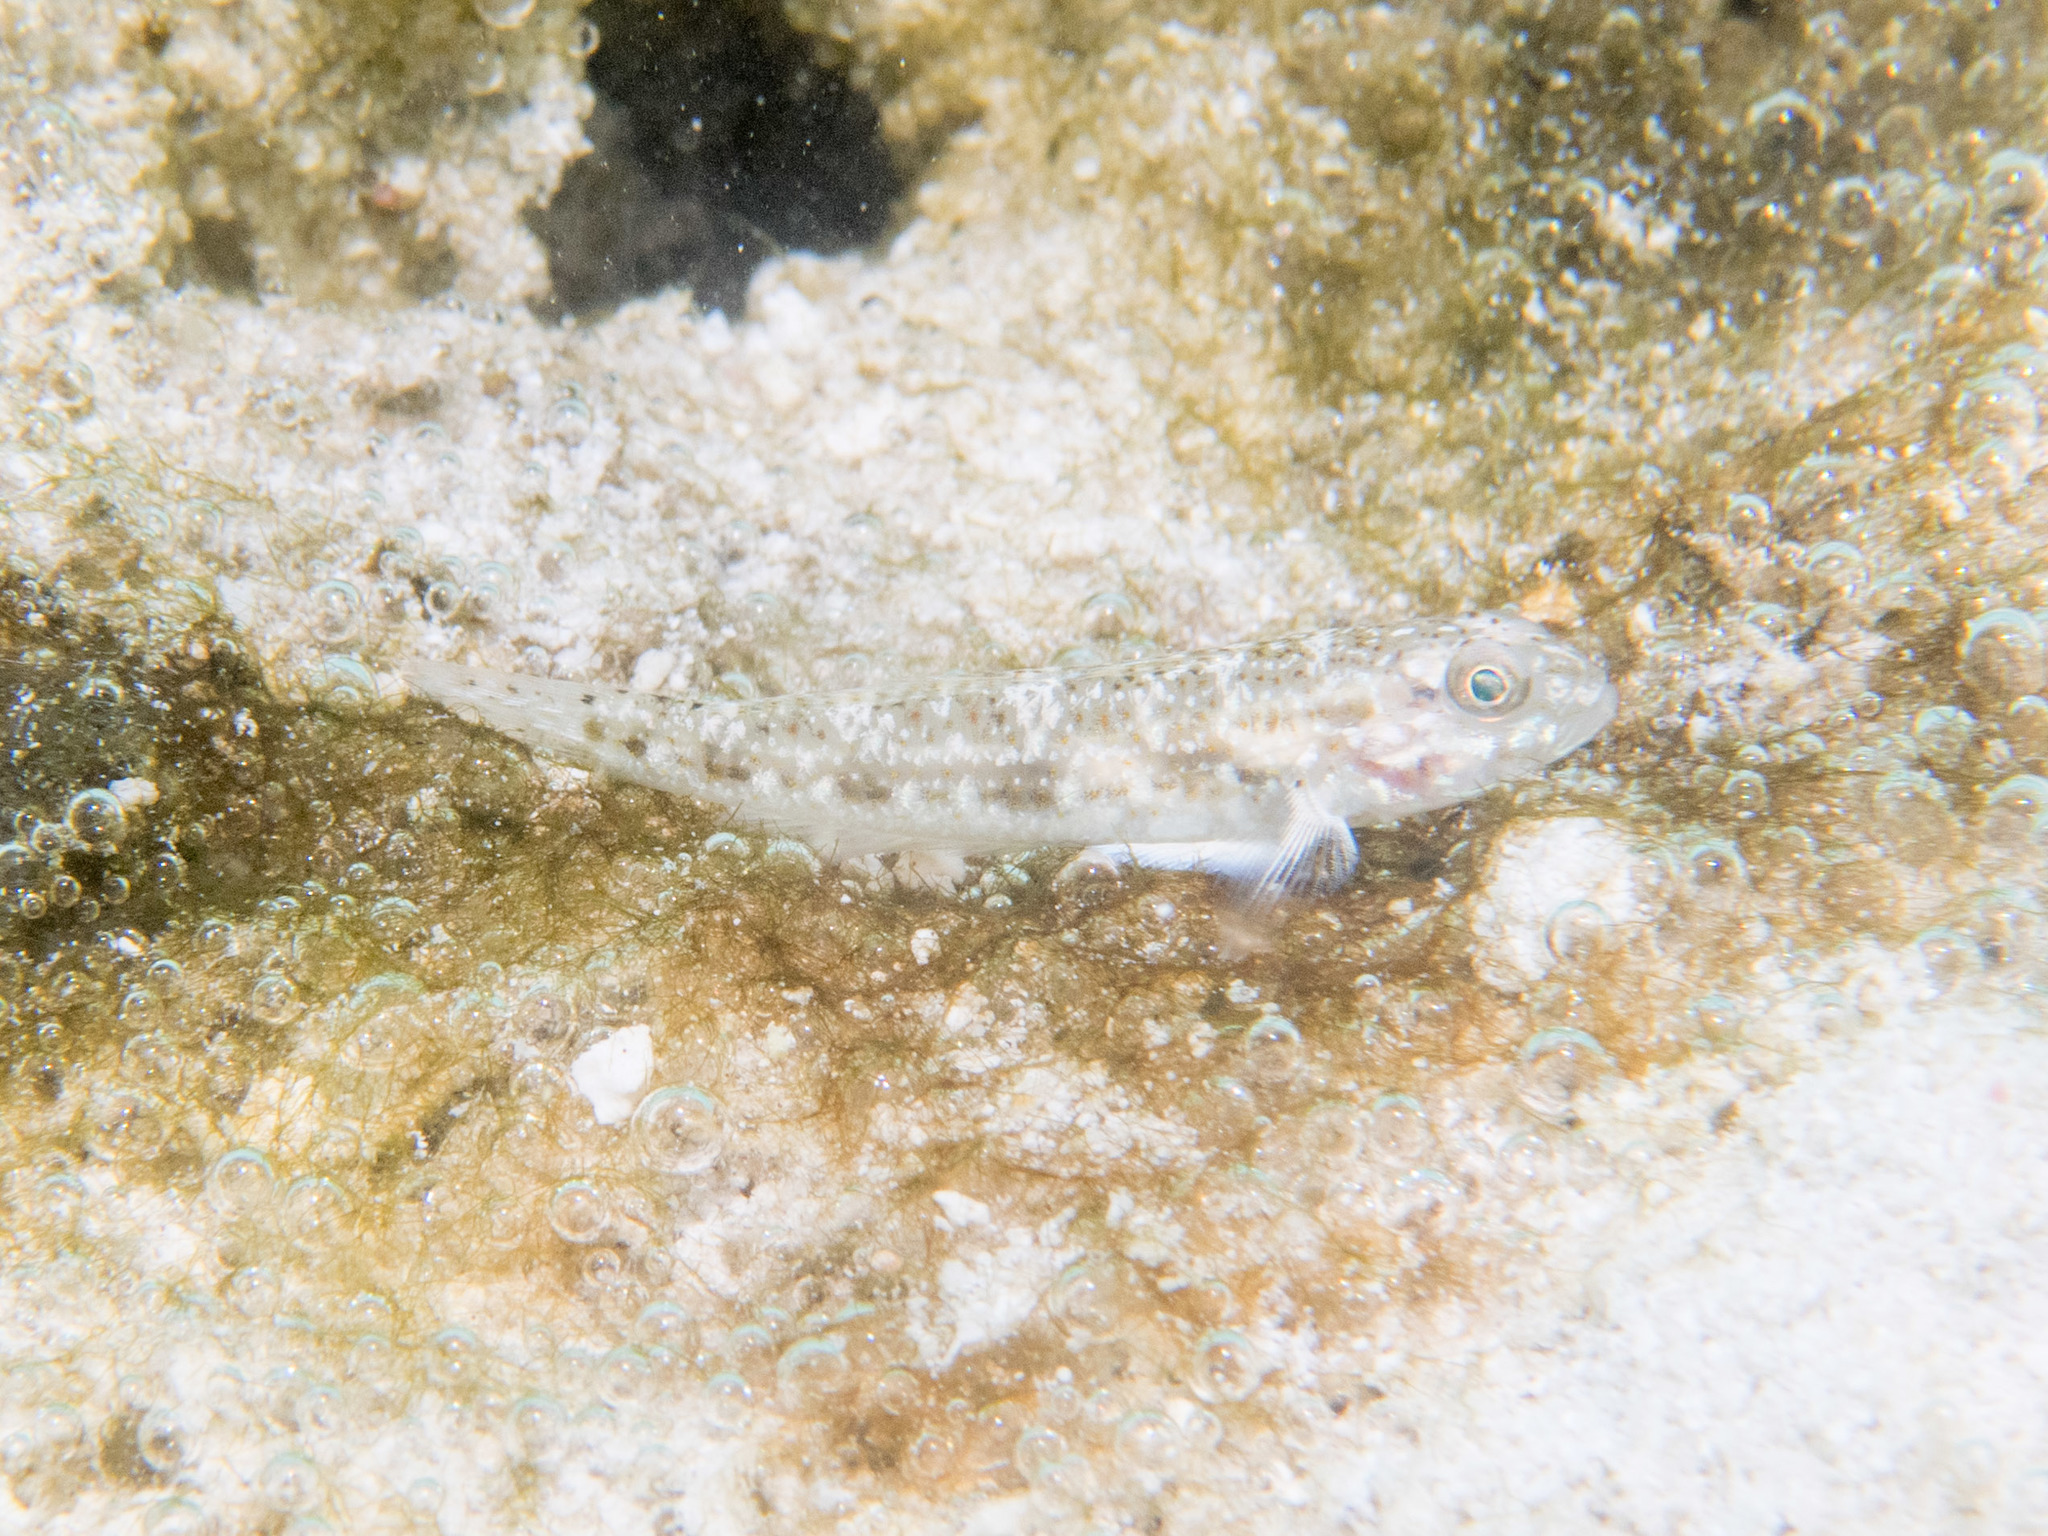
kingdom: Animalia
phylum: Chordata
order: Perciformes
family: Gobiidae
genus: Oplopomus
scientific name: Oplopomus oplopomus
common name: Spinecheek goby
